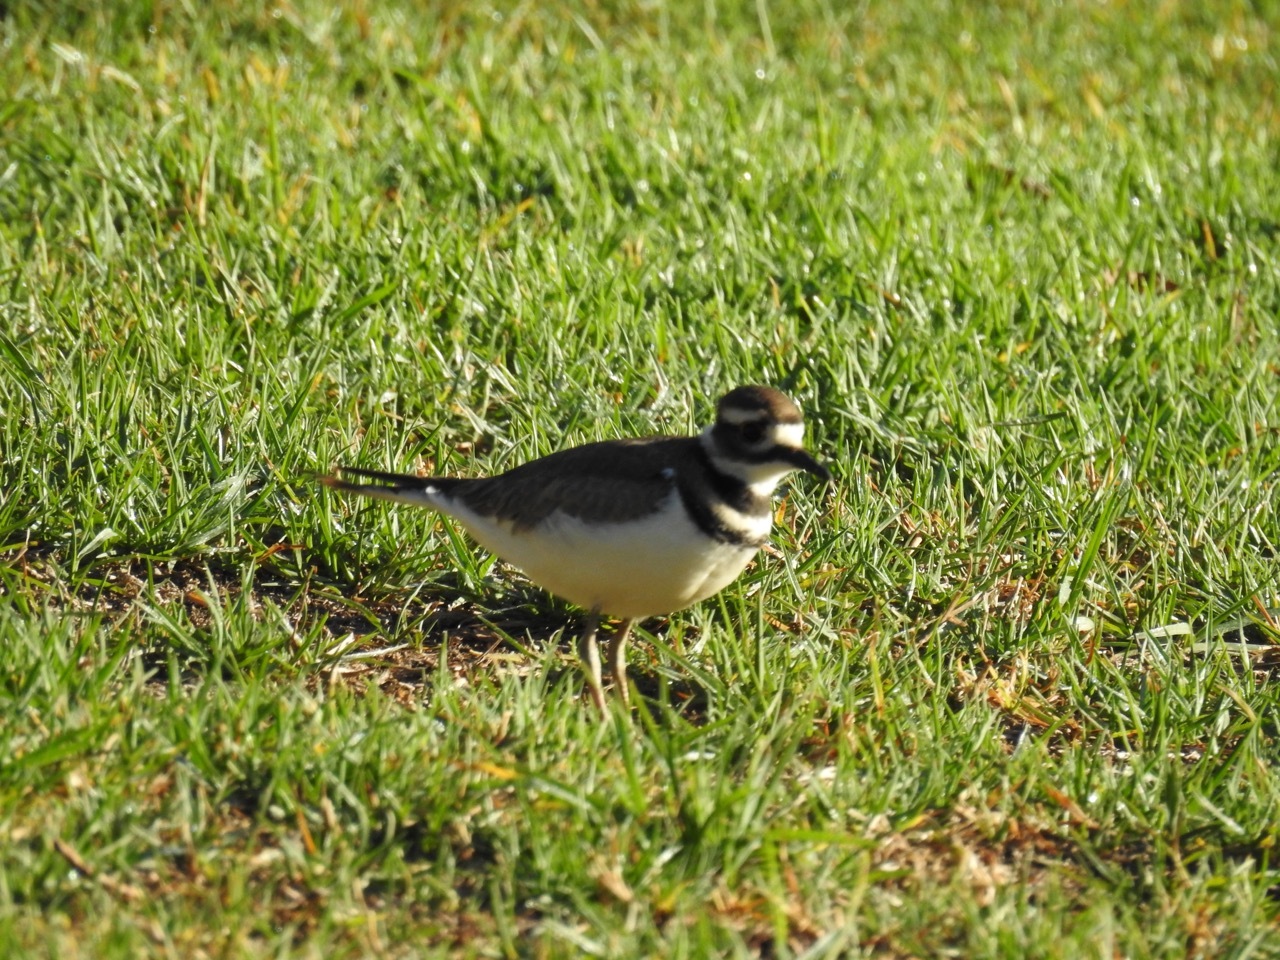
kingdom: Animalia
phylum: Chordata
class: Aves
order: Charadriiformes
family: Charadriidae
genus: Charadrius
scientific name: Charadrius vociferus
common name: Killdeer
